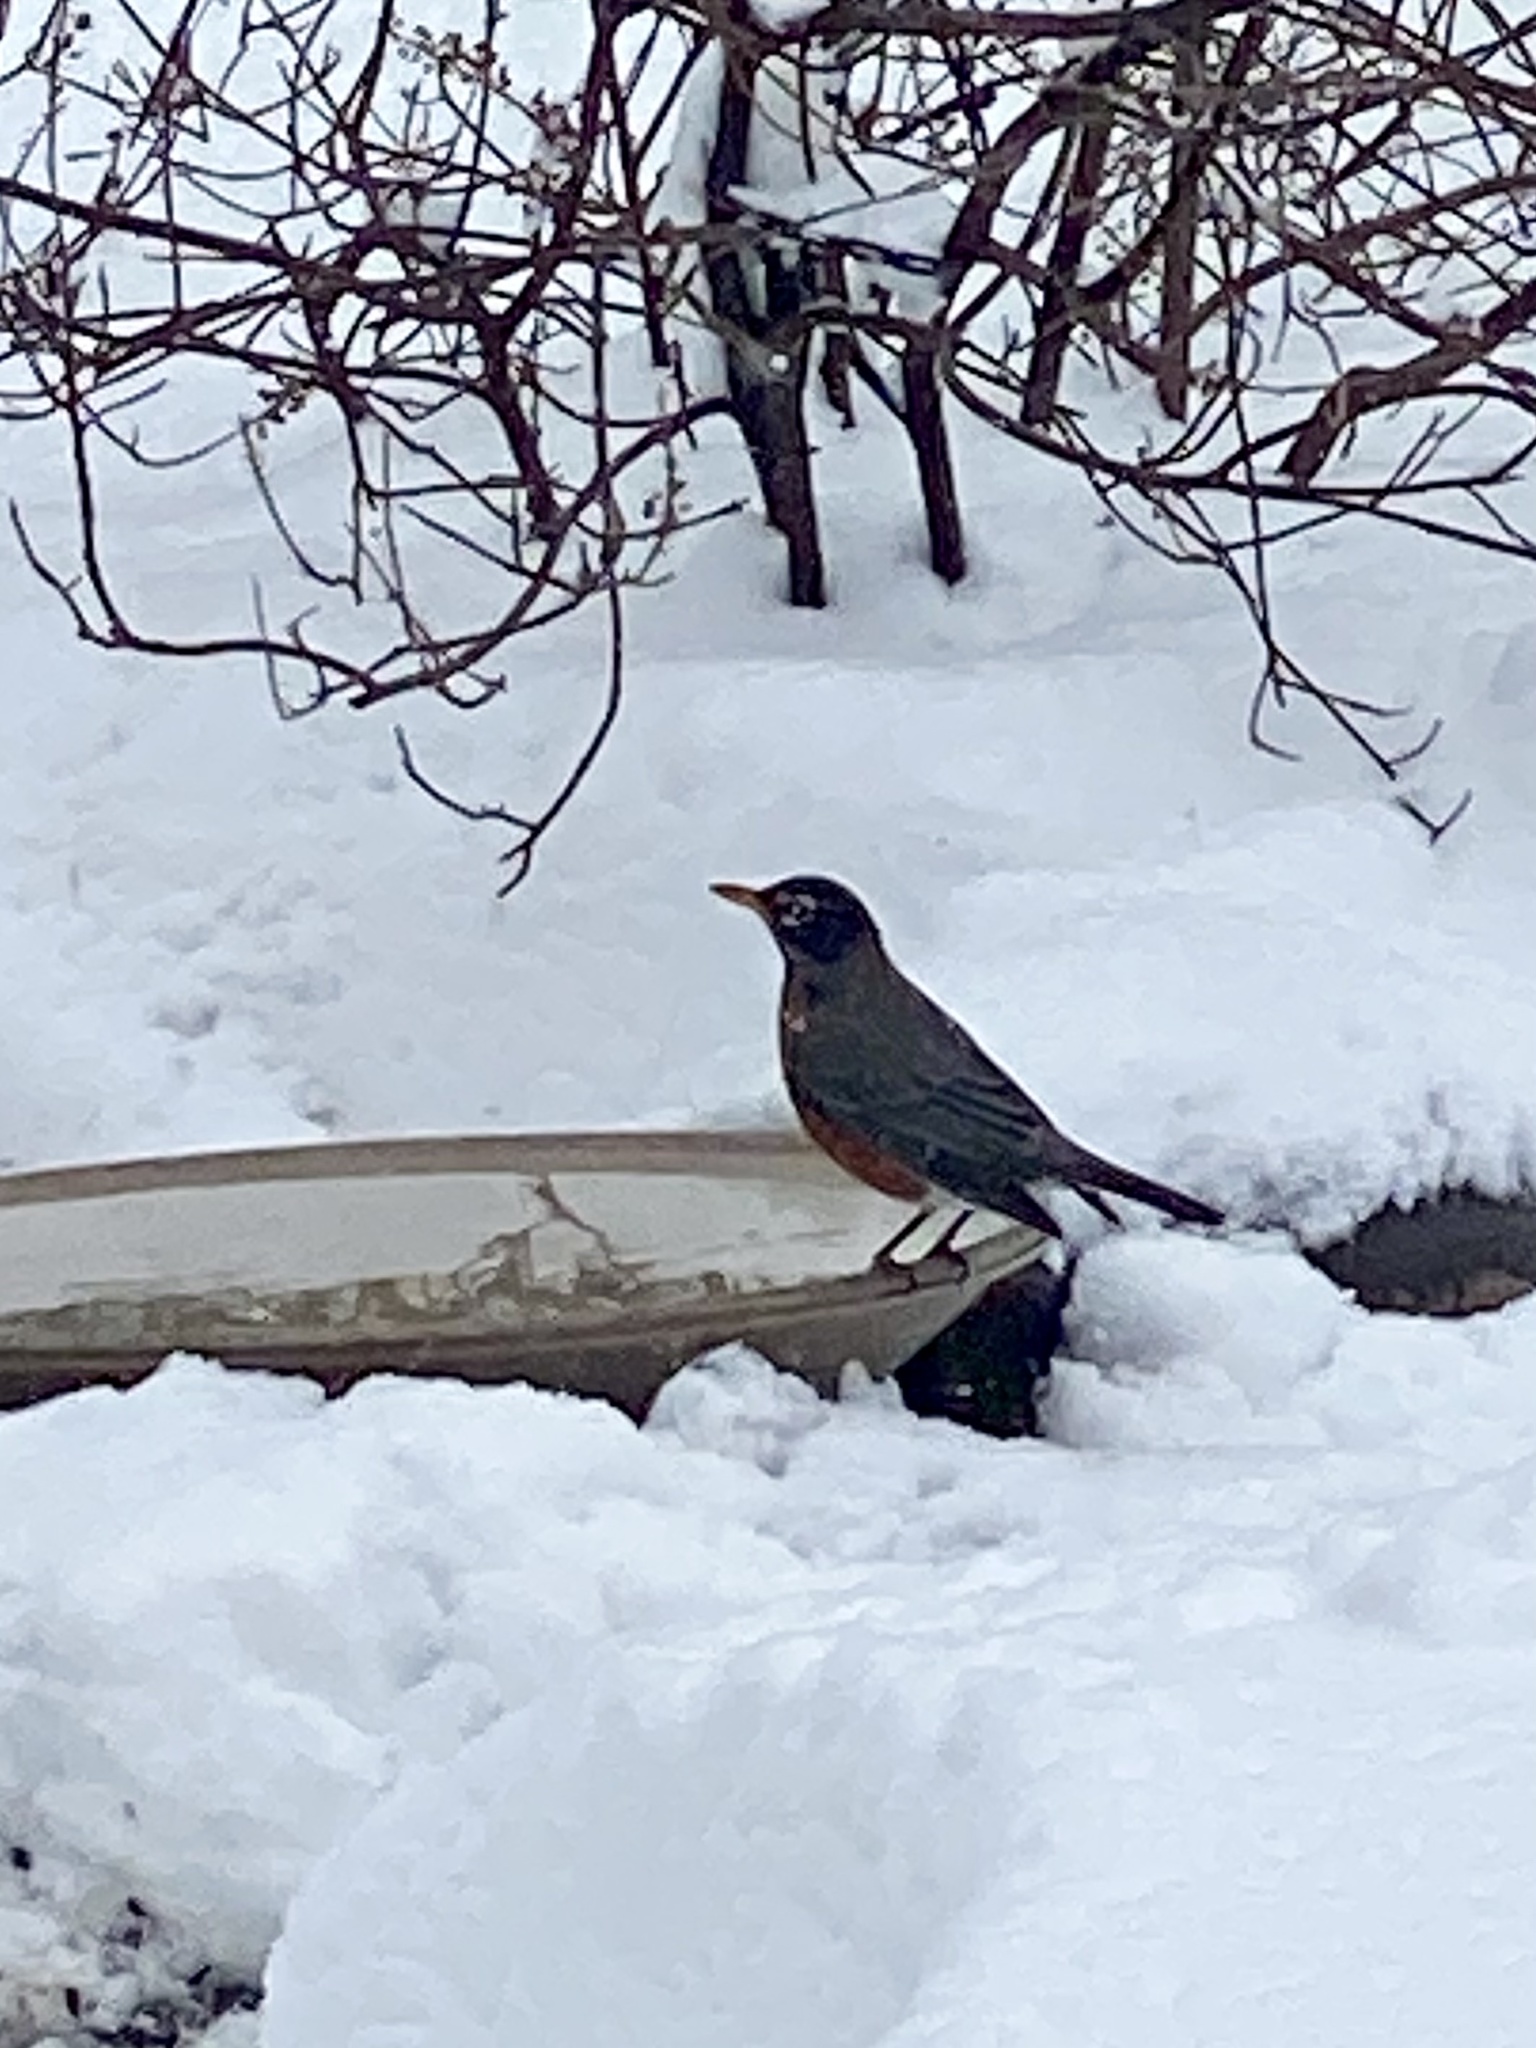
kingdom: Animalia
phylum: Chordata
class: Aves
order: Passeriformes
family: Turdidae
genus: Turdus
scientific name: Turdus migratorius
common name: American robin
